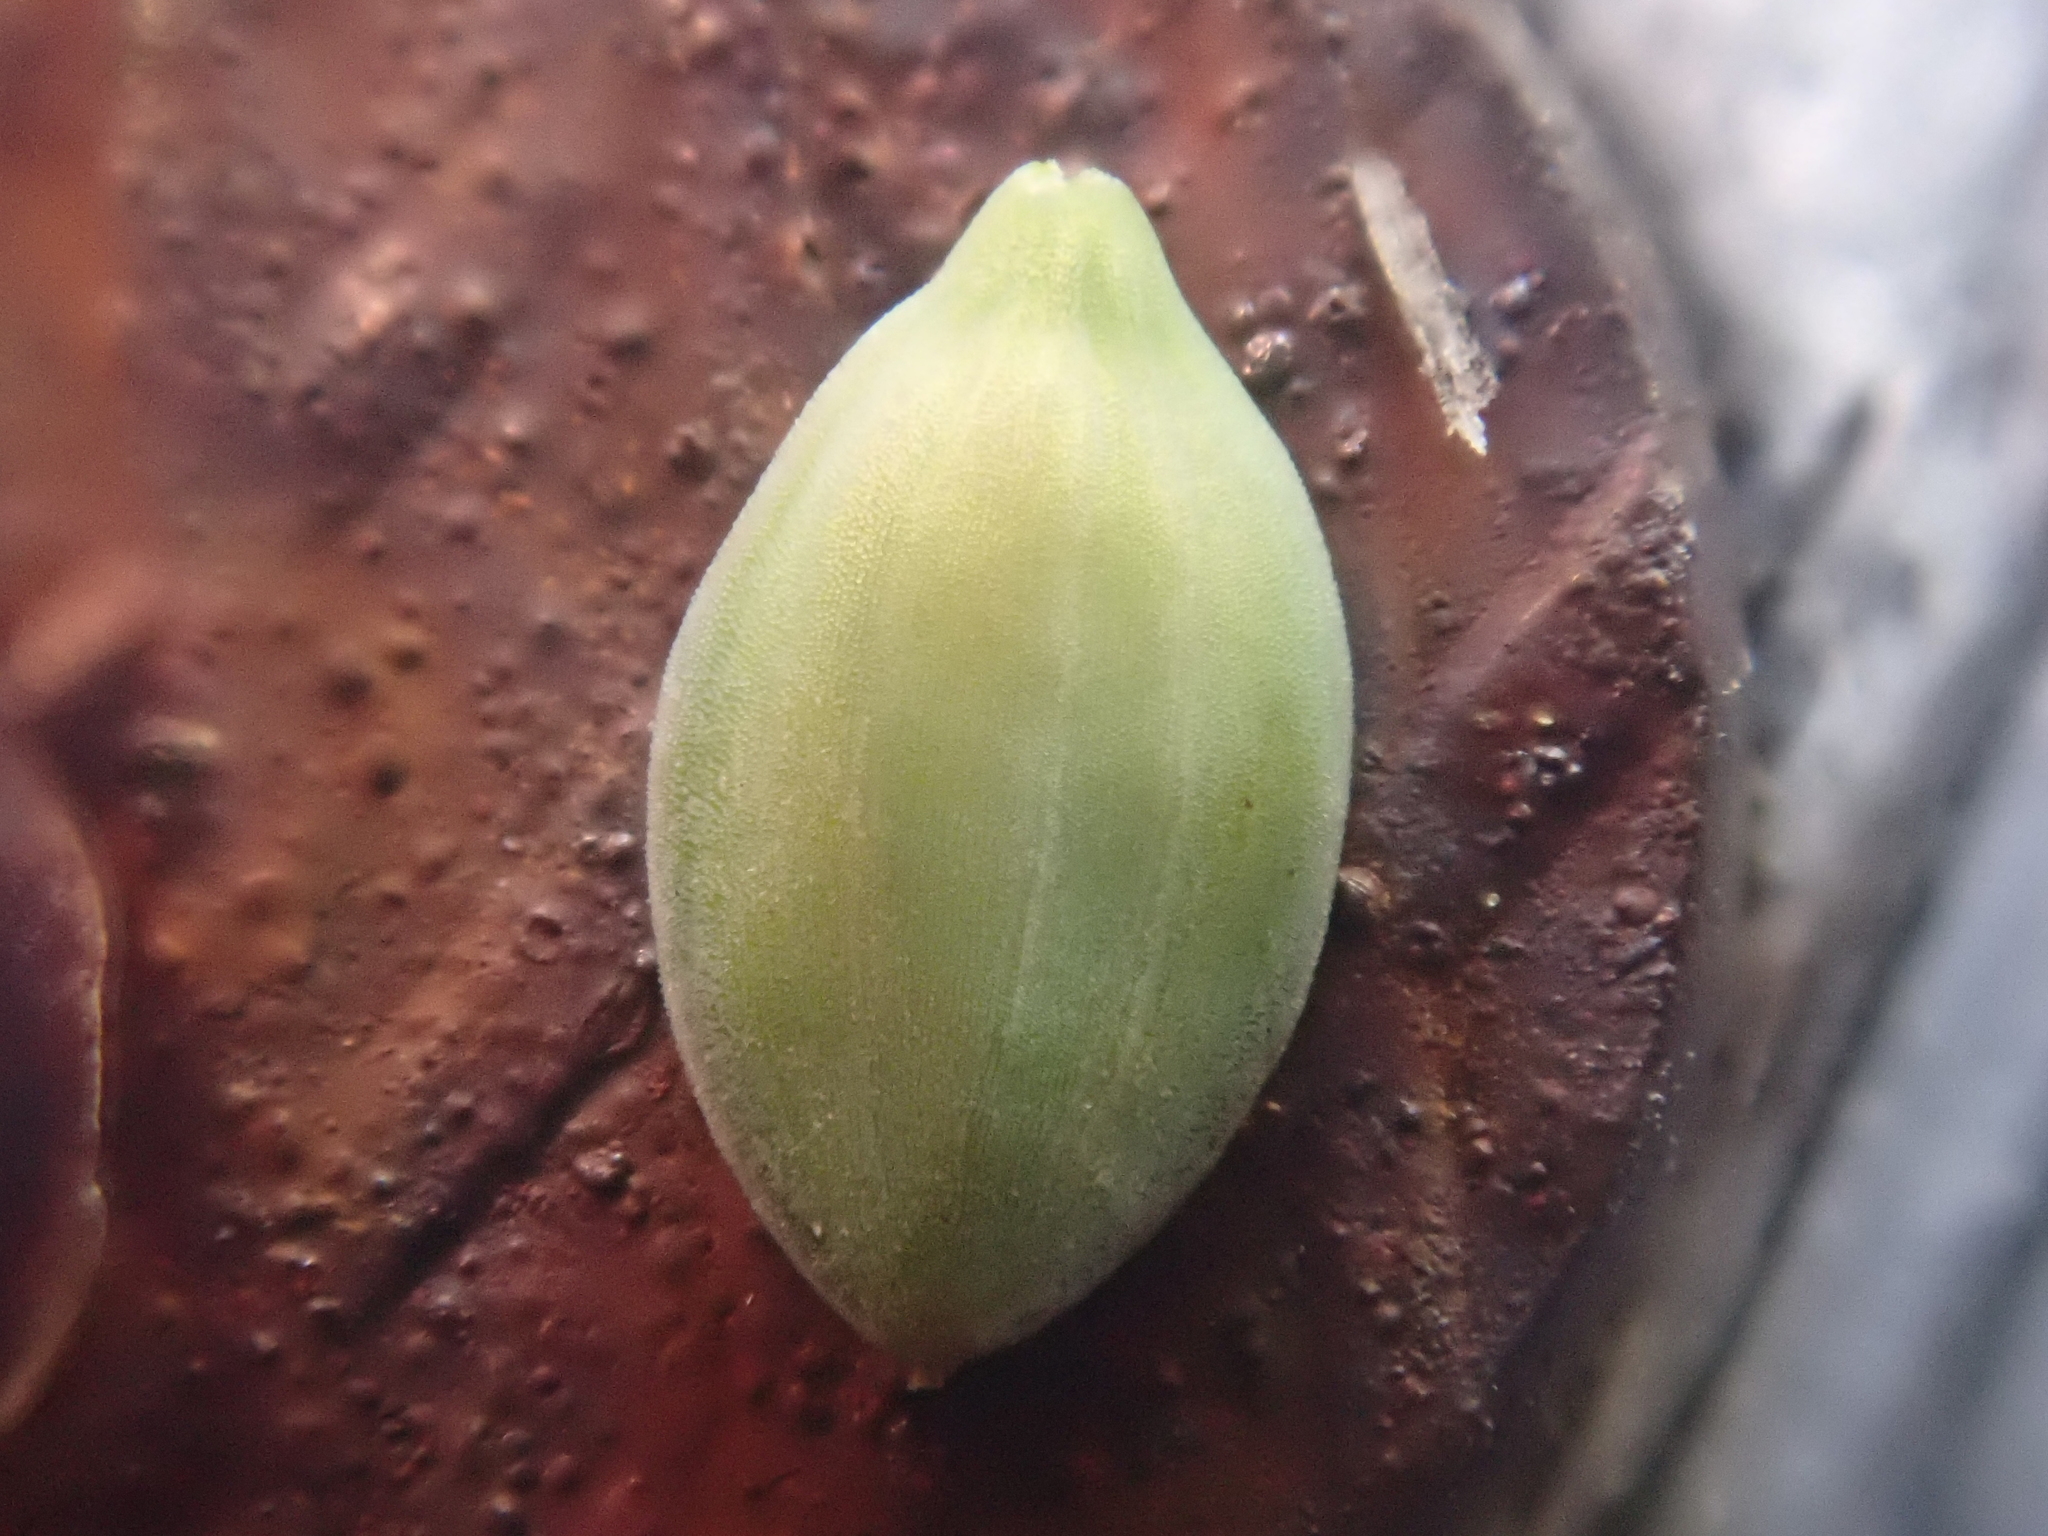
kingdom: Plantae
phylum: Tracheophyta
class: Liliopsida
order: Poales
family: Cyperaceae
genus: Carex
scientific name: Carex magellanica
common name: Bog sedge
